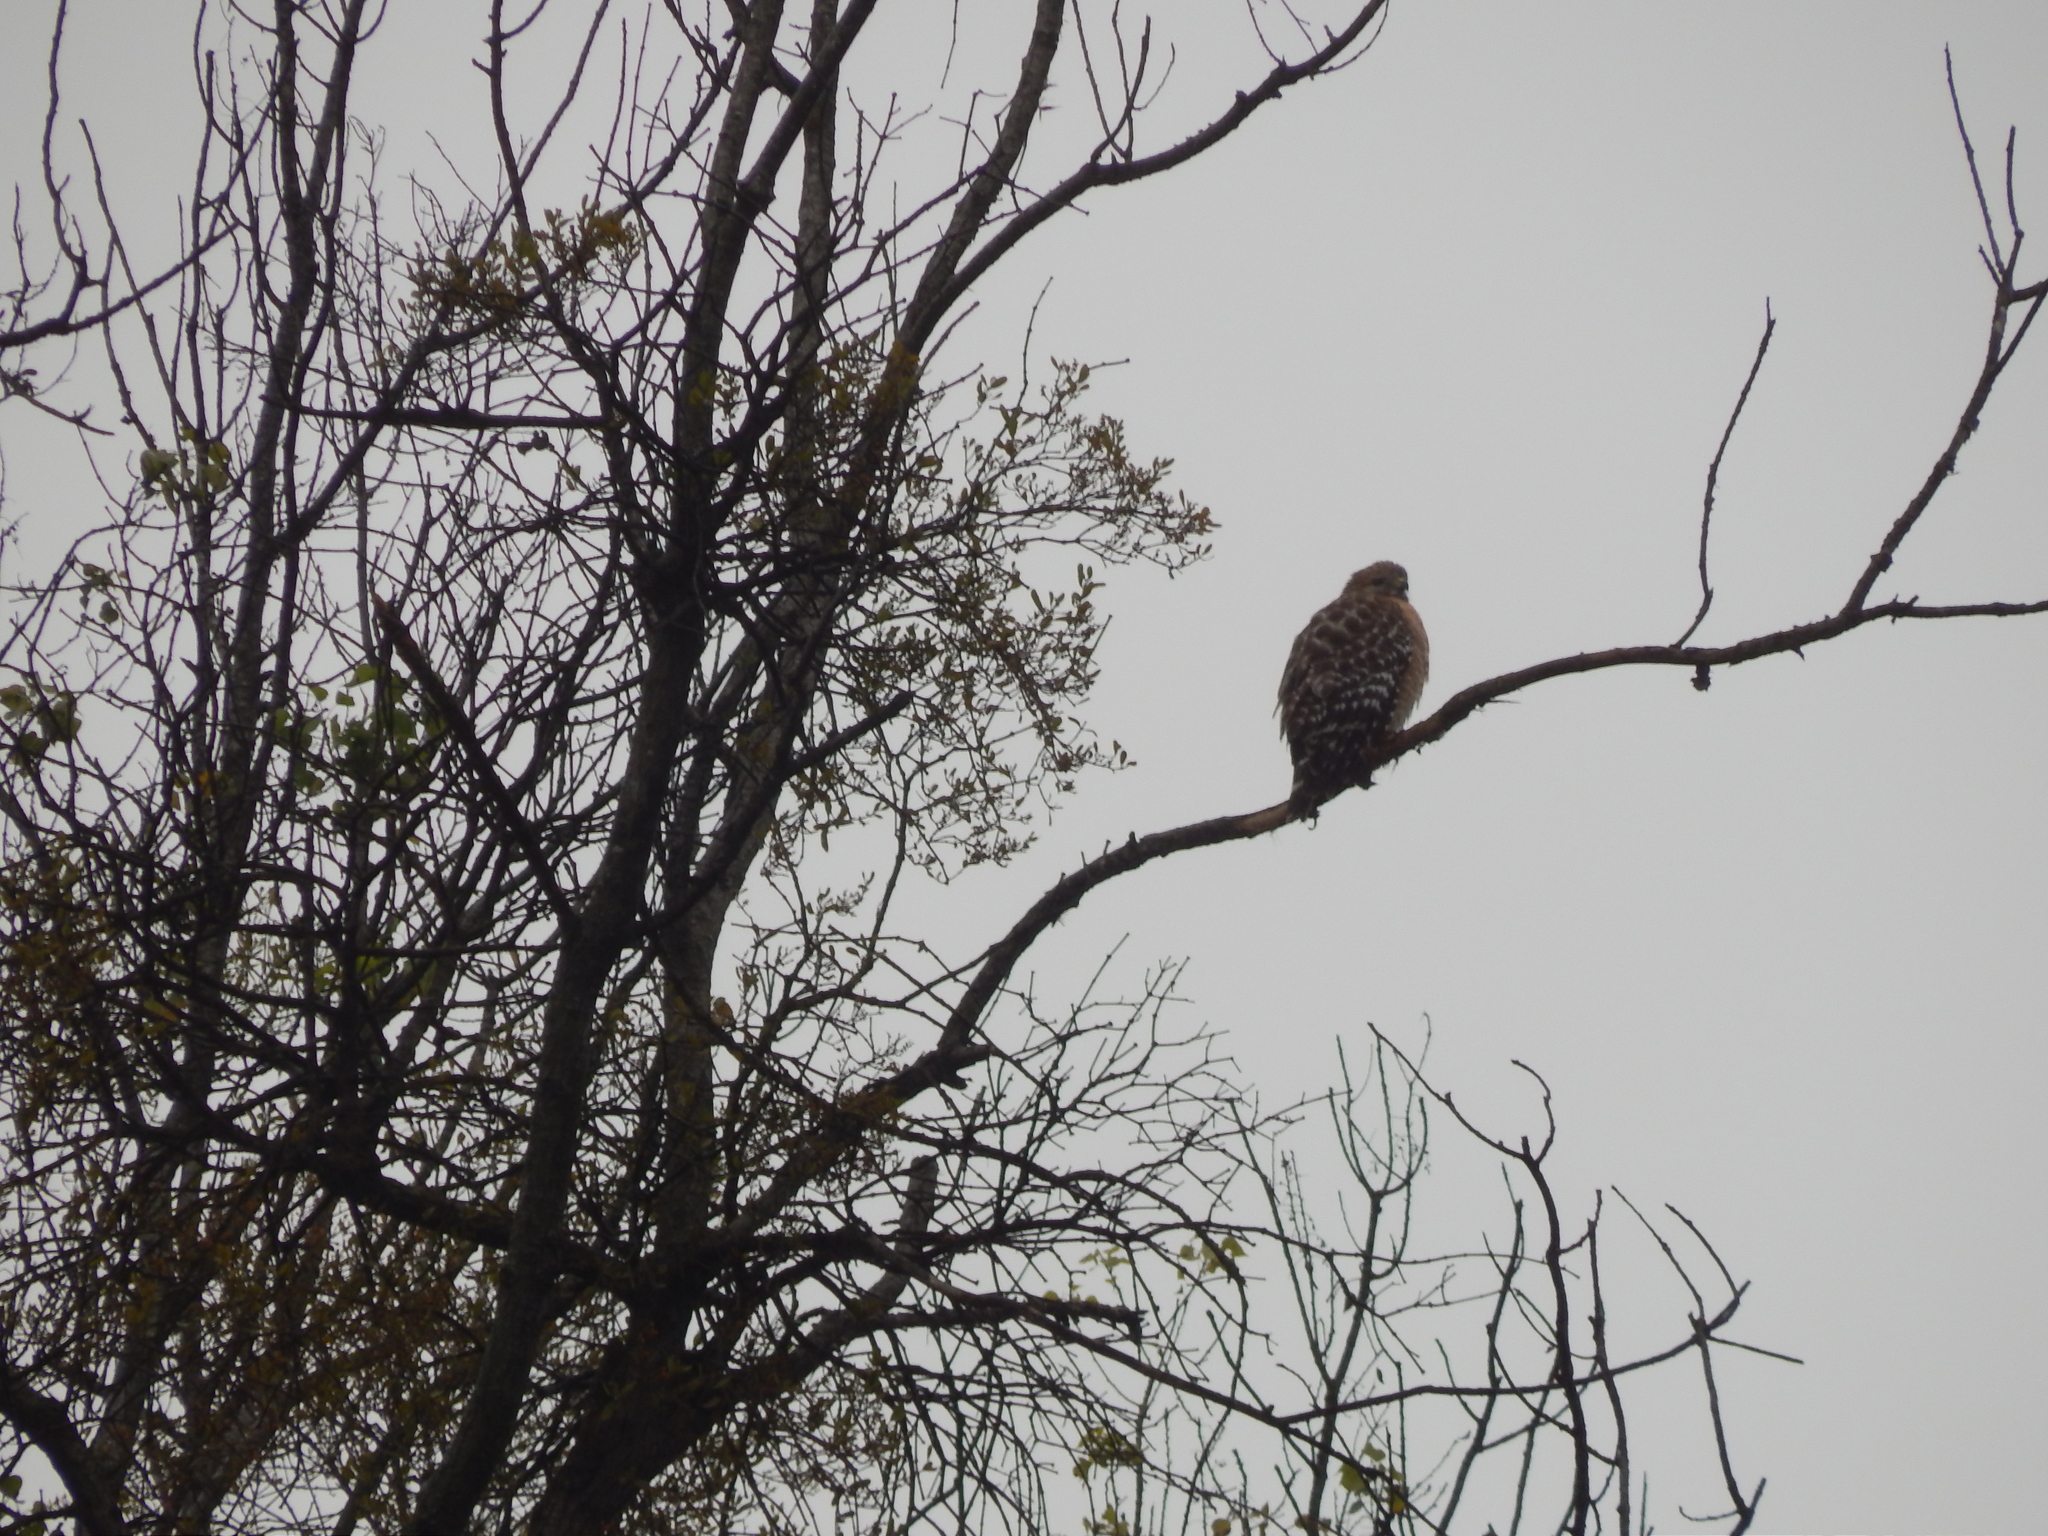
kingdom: Animalia
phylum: Chordata
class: Aves
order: Accipitriformes
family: Accipitridae
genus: Buteo
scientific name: Buteo lineatus
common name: Red-shouldered hawk
